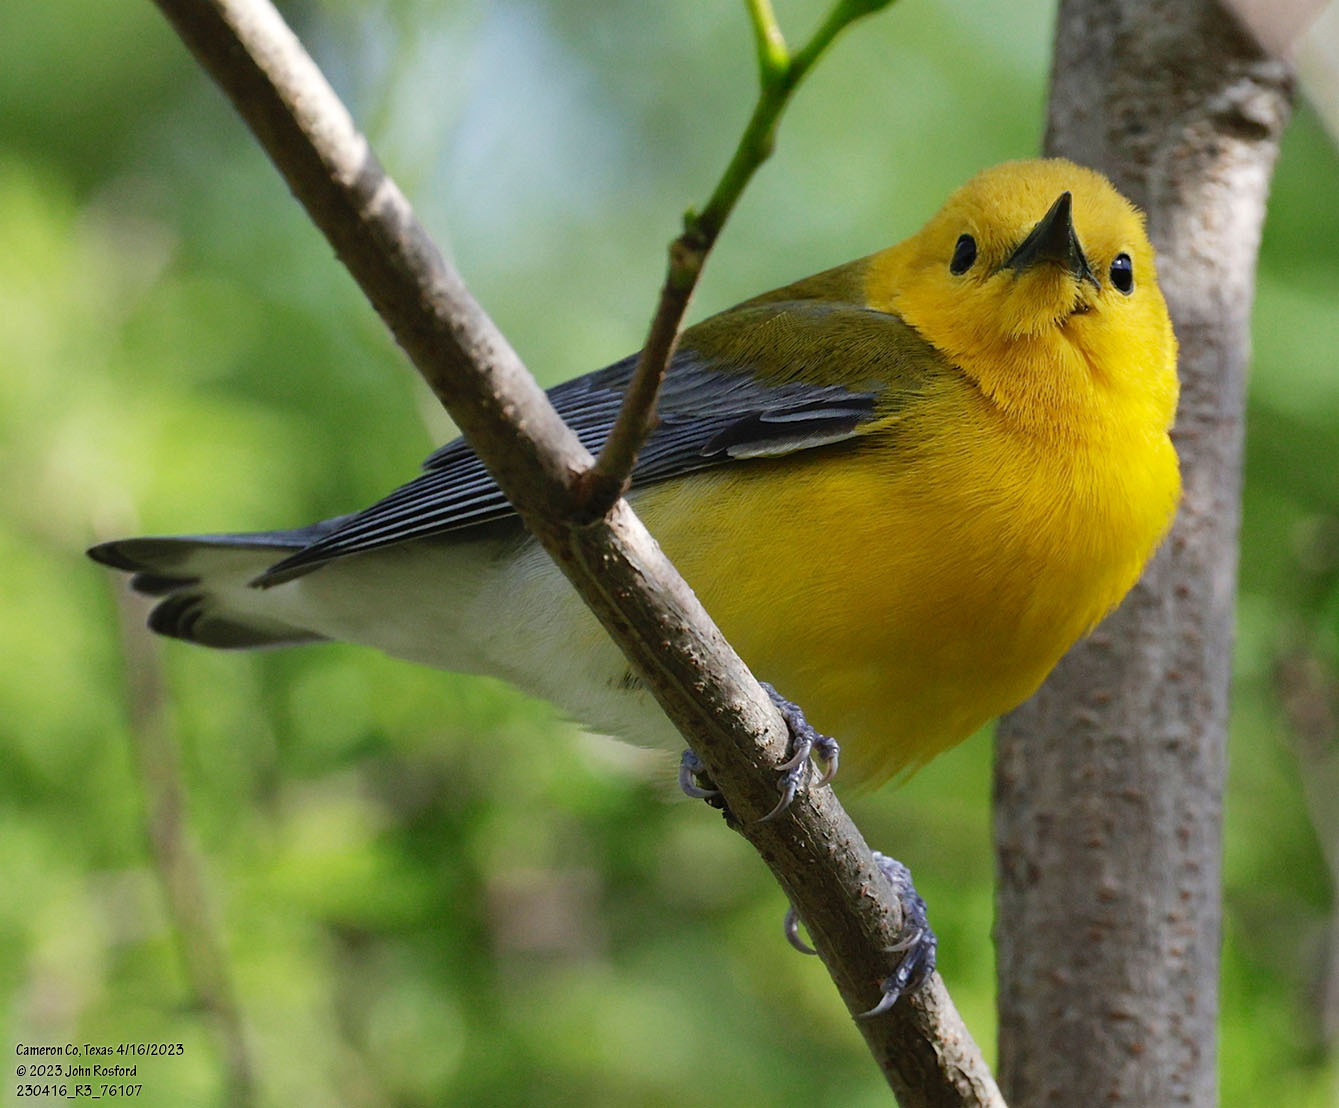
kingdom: Animalia
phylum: Chordata
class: Aves
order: Passeriformes
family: Parulidae
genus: Protonotaria
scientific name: Protonotaria citrea
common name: Prothonotary warbler
